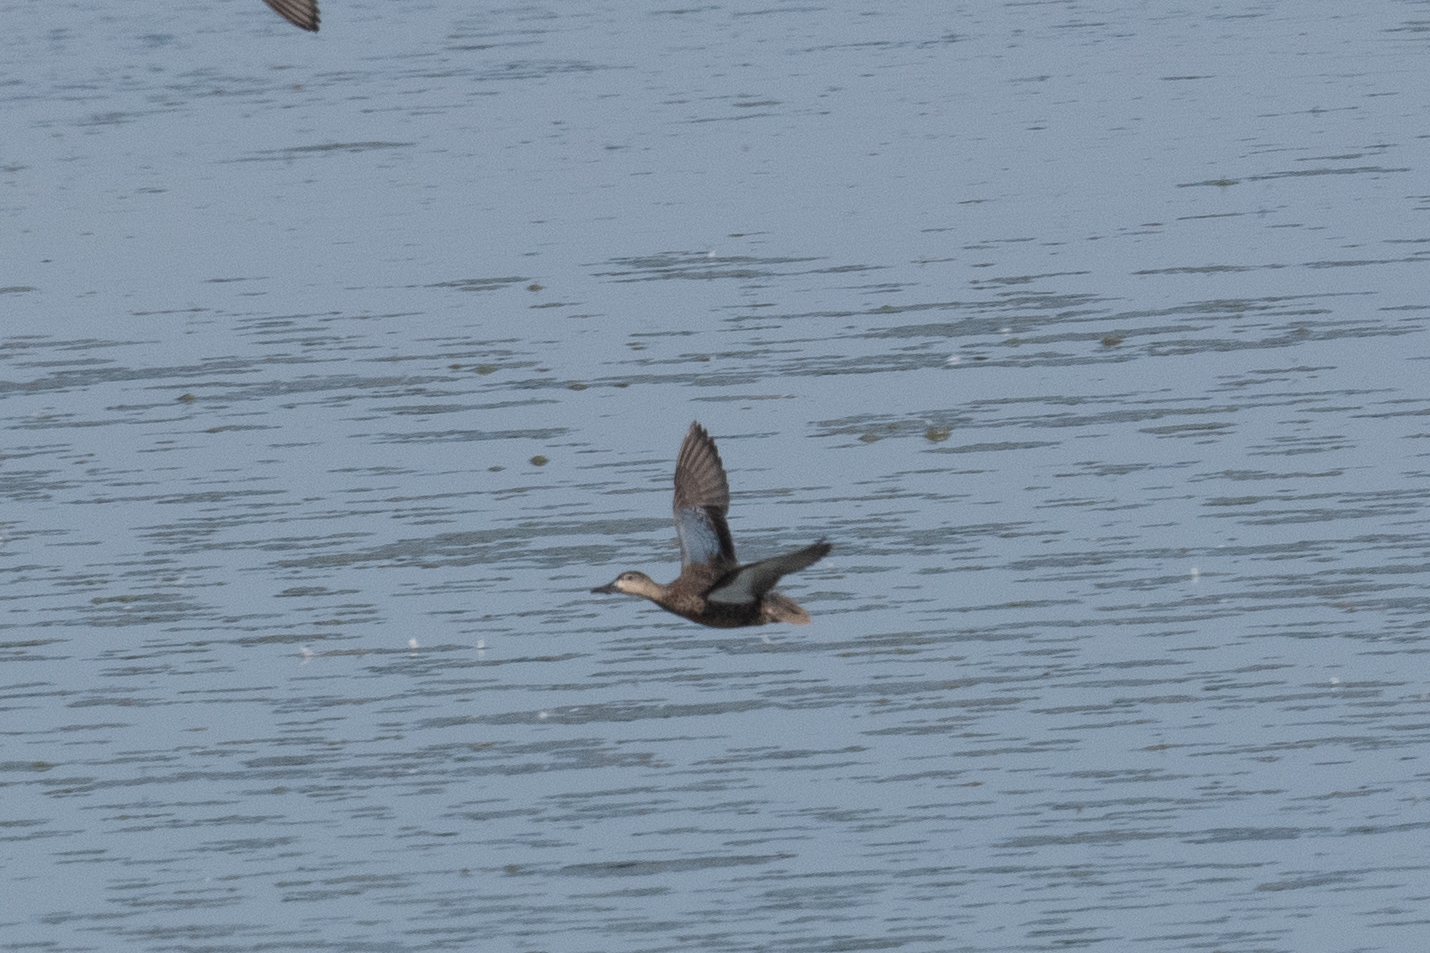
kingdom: Animalia
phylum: Chordata
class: Aves
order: Anseriformes
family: Anatidae
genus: Spatula
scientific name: Spatula cyanoptera
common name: Cinnamon teal
